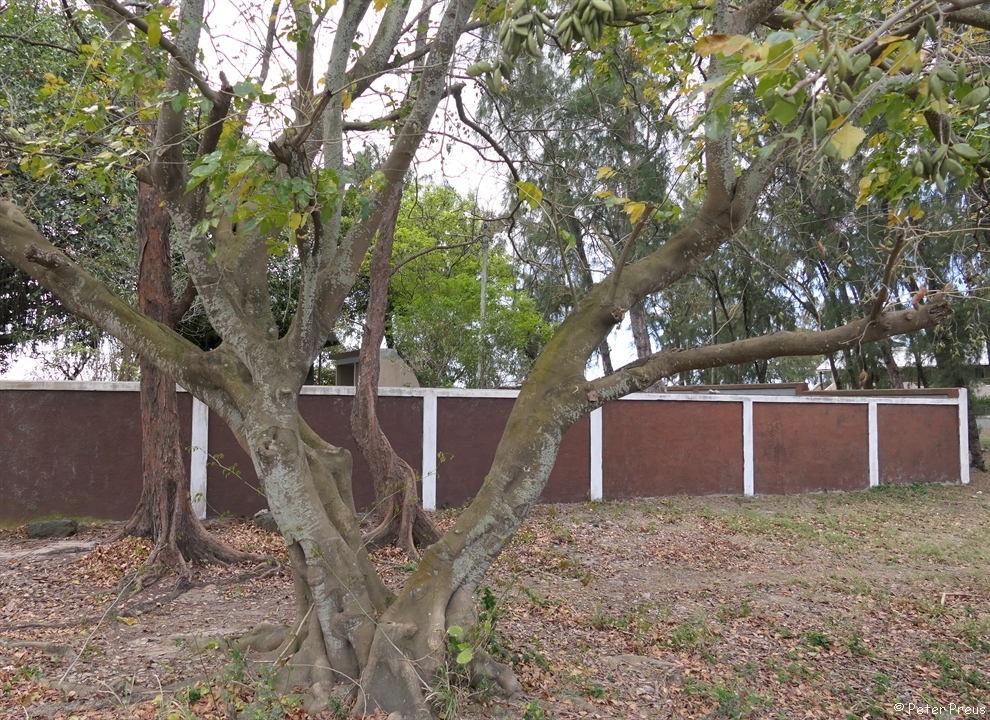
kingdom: Plantae
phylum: Tracheophyta
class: Magnoliopsida
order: Fabales
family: Fabaceae
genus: Pongamia
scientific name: Pongamia pinnata
